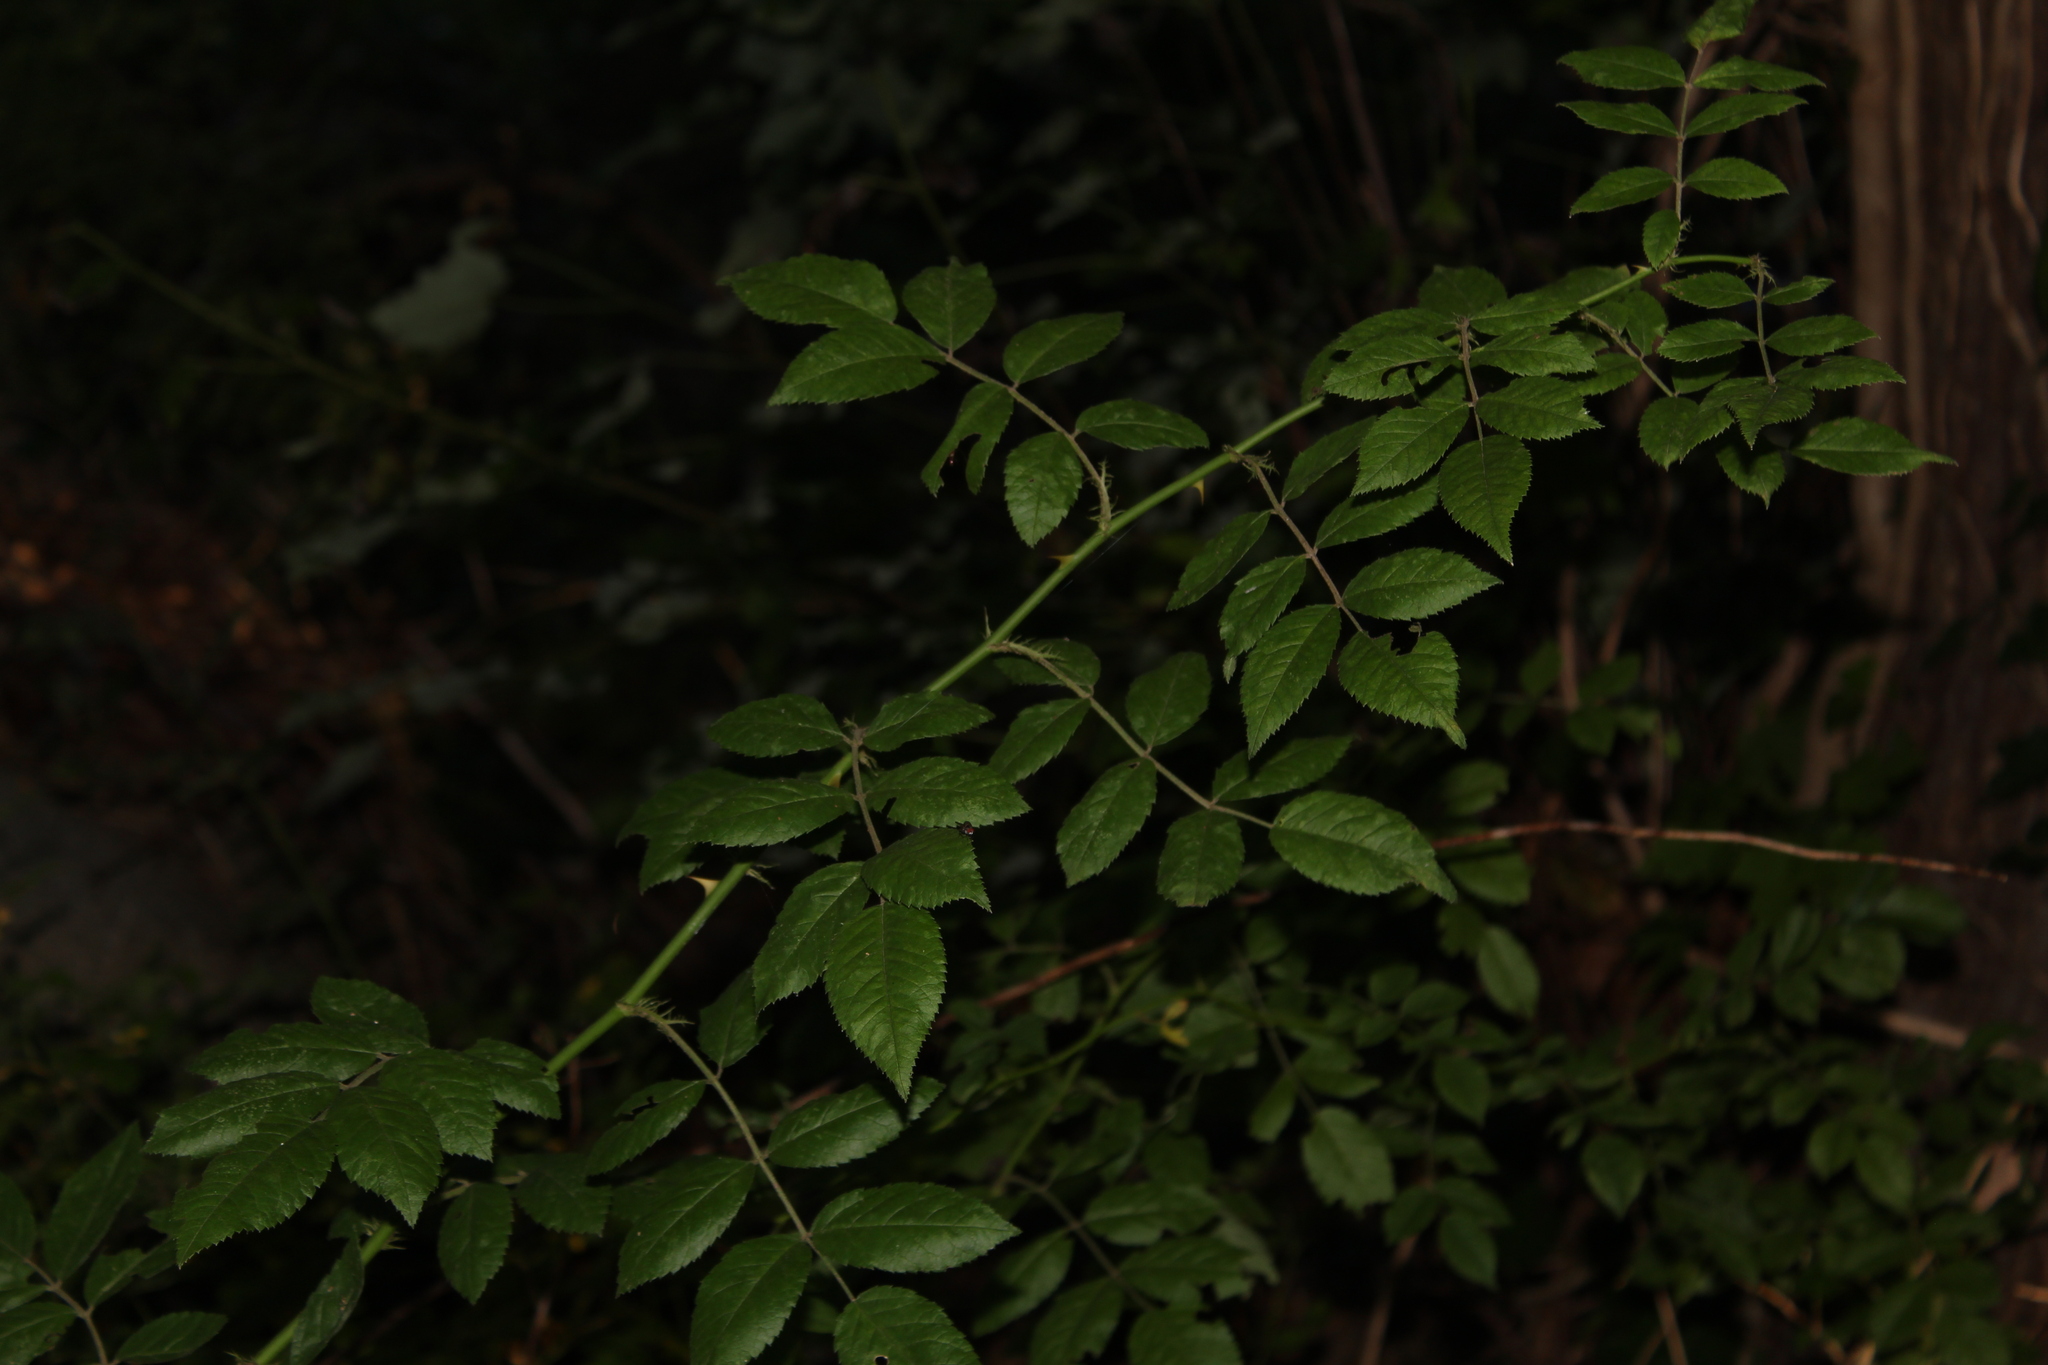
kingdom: Plantae
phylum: Tracheophyta
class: Magnoliopsida
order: Rosales
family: Rosaceae
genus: Rosa
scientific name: Rosa multiflora
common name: Multiflora rose
